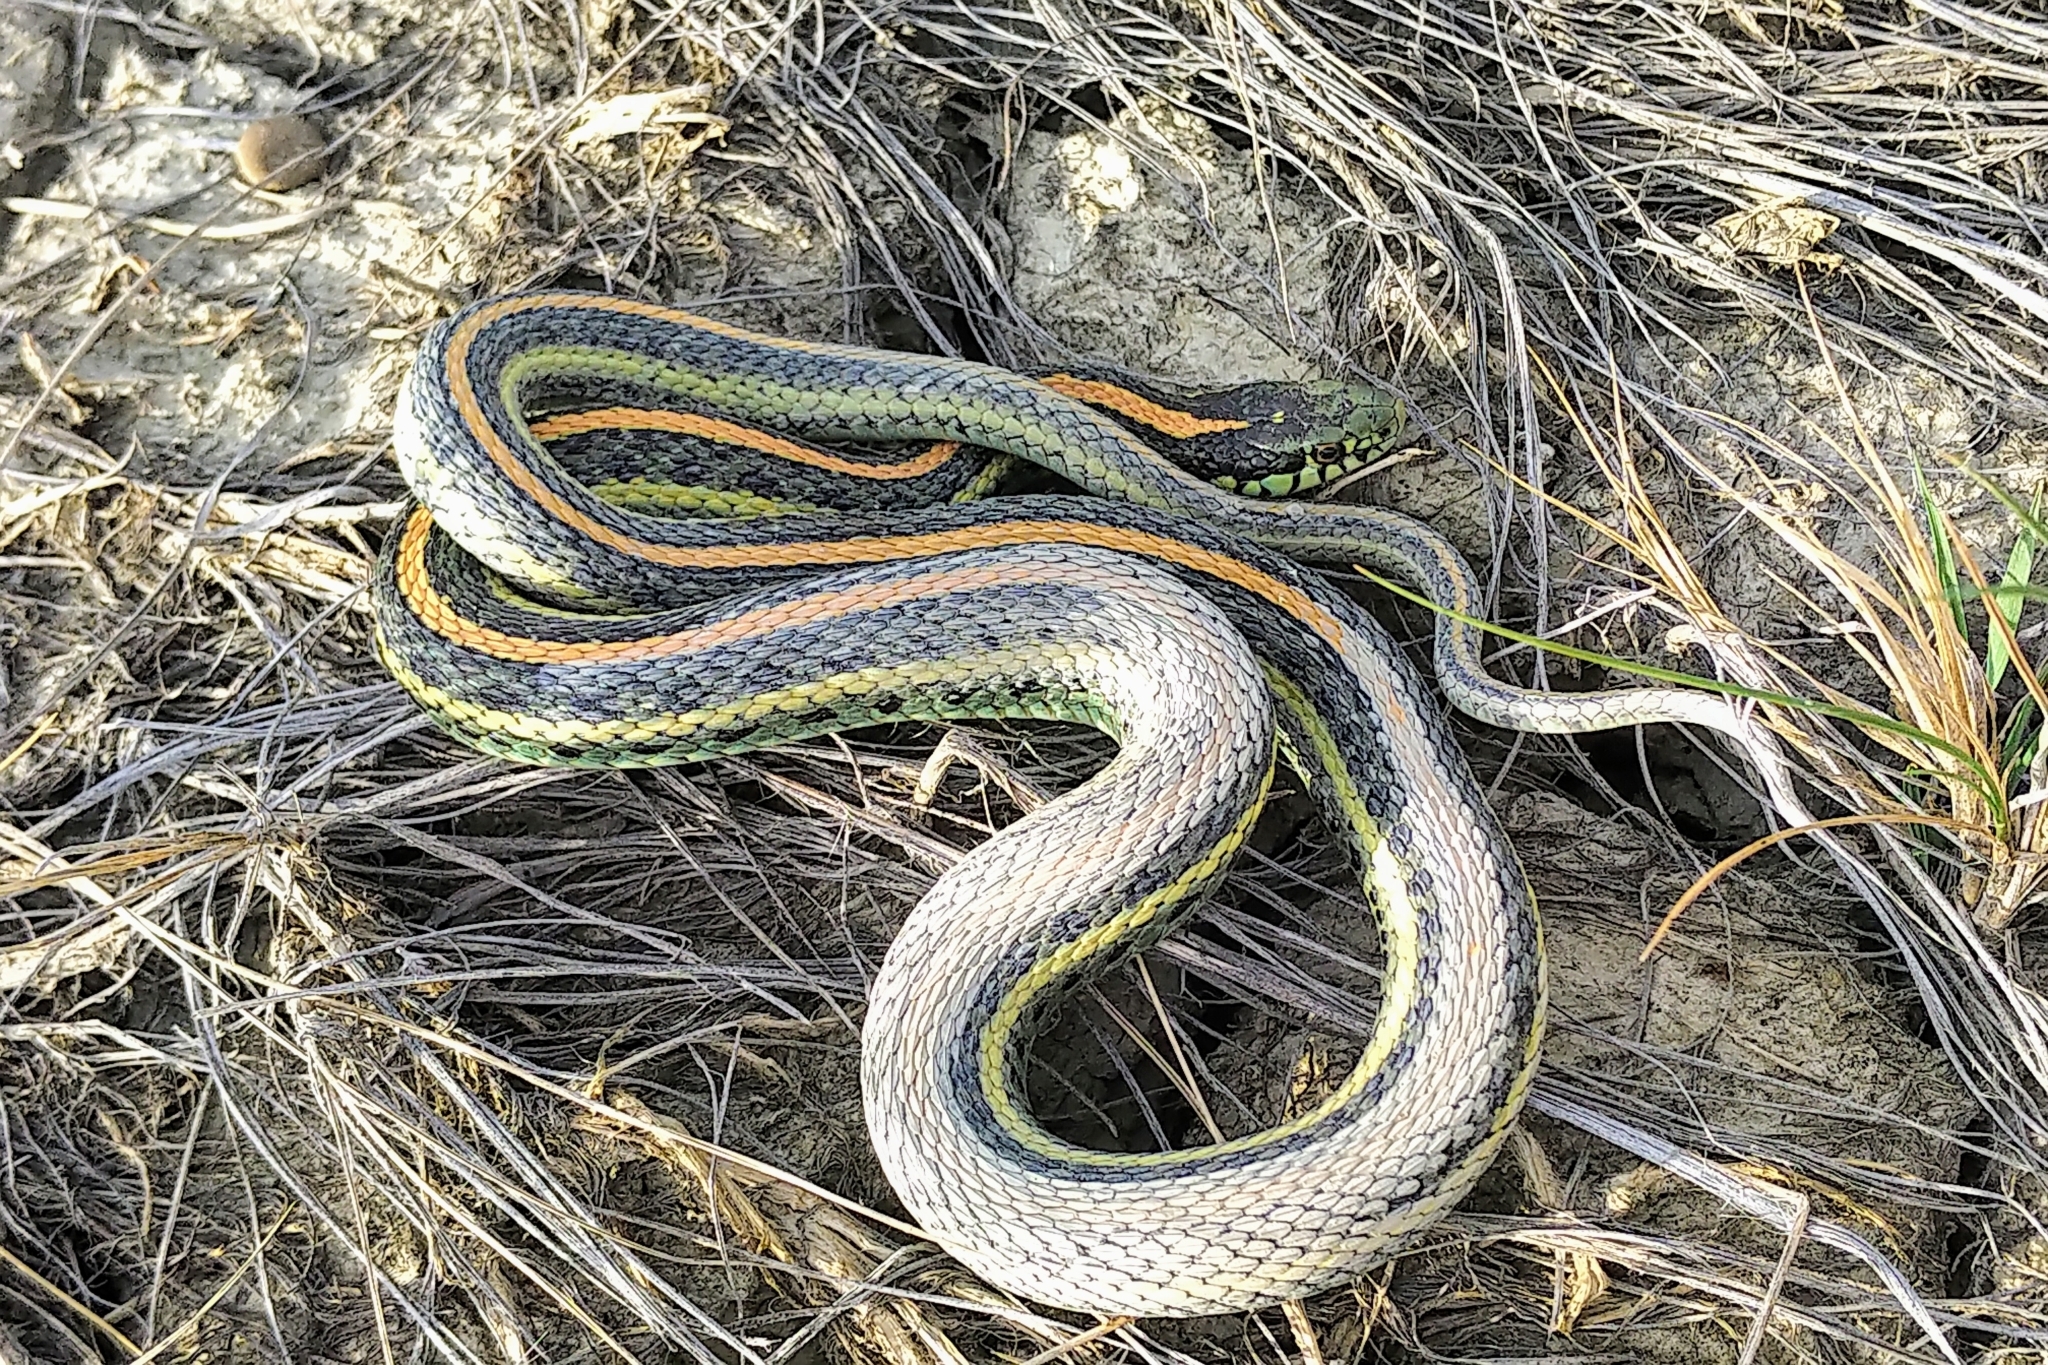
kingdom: Animalia
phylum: Chordata
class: Squamata
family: Colubridae
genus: Thamnophis
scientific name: Thamnophis radix
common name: Plains garter snake
